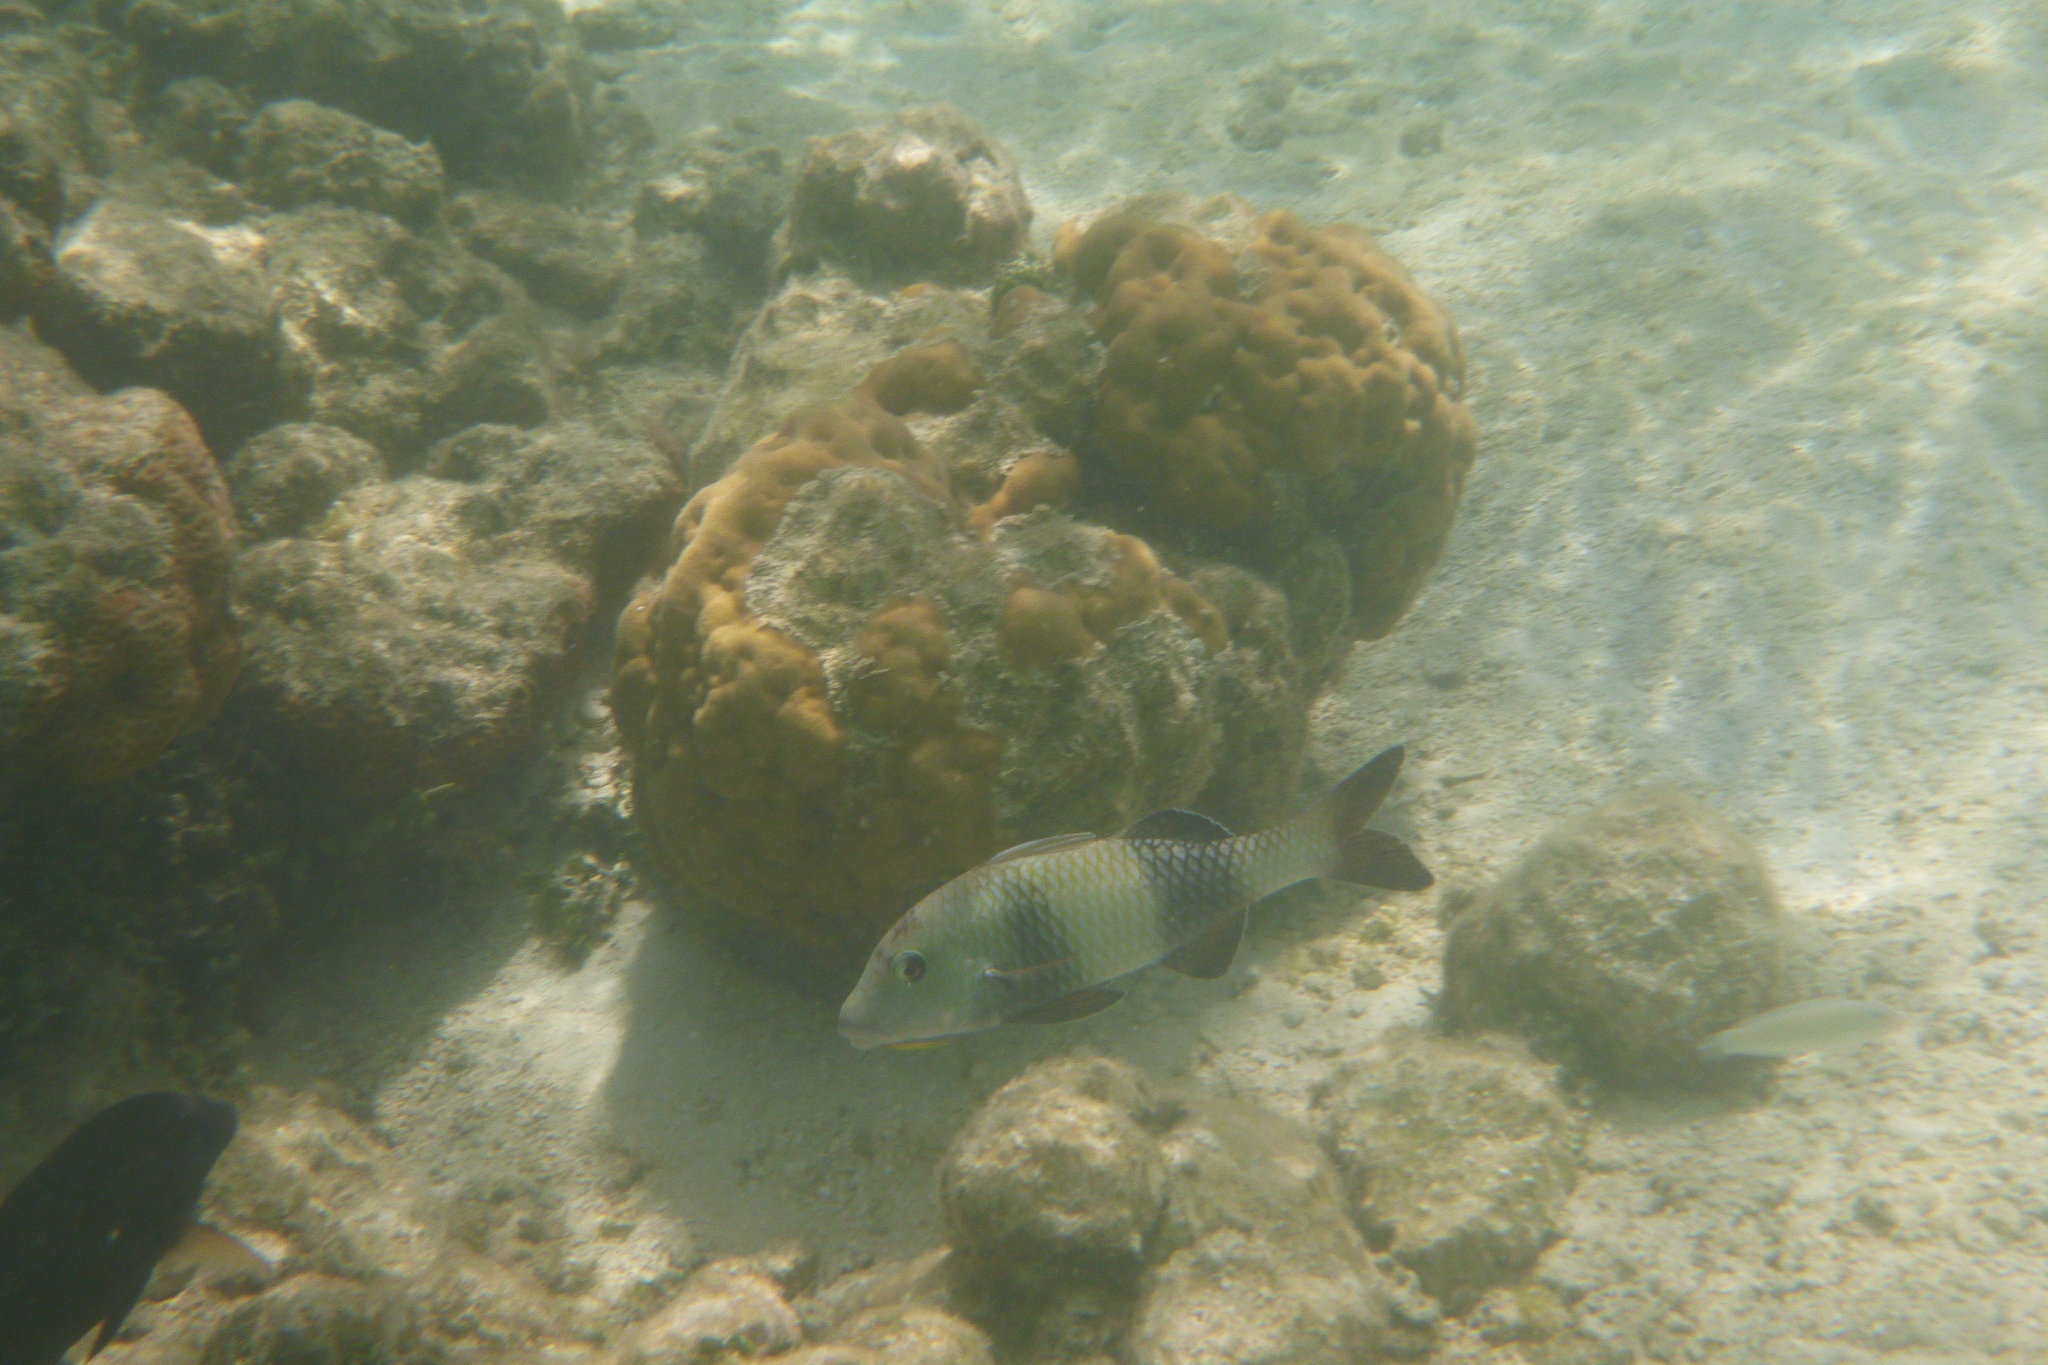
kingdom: Animalia
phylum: Chordata
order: Perciformes
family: Mullidae
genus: Parupeneus
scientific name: Parupeneus insularis
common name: Doublebar goatfish
